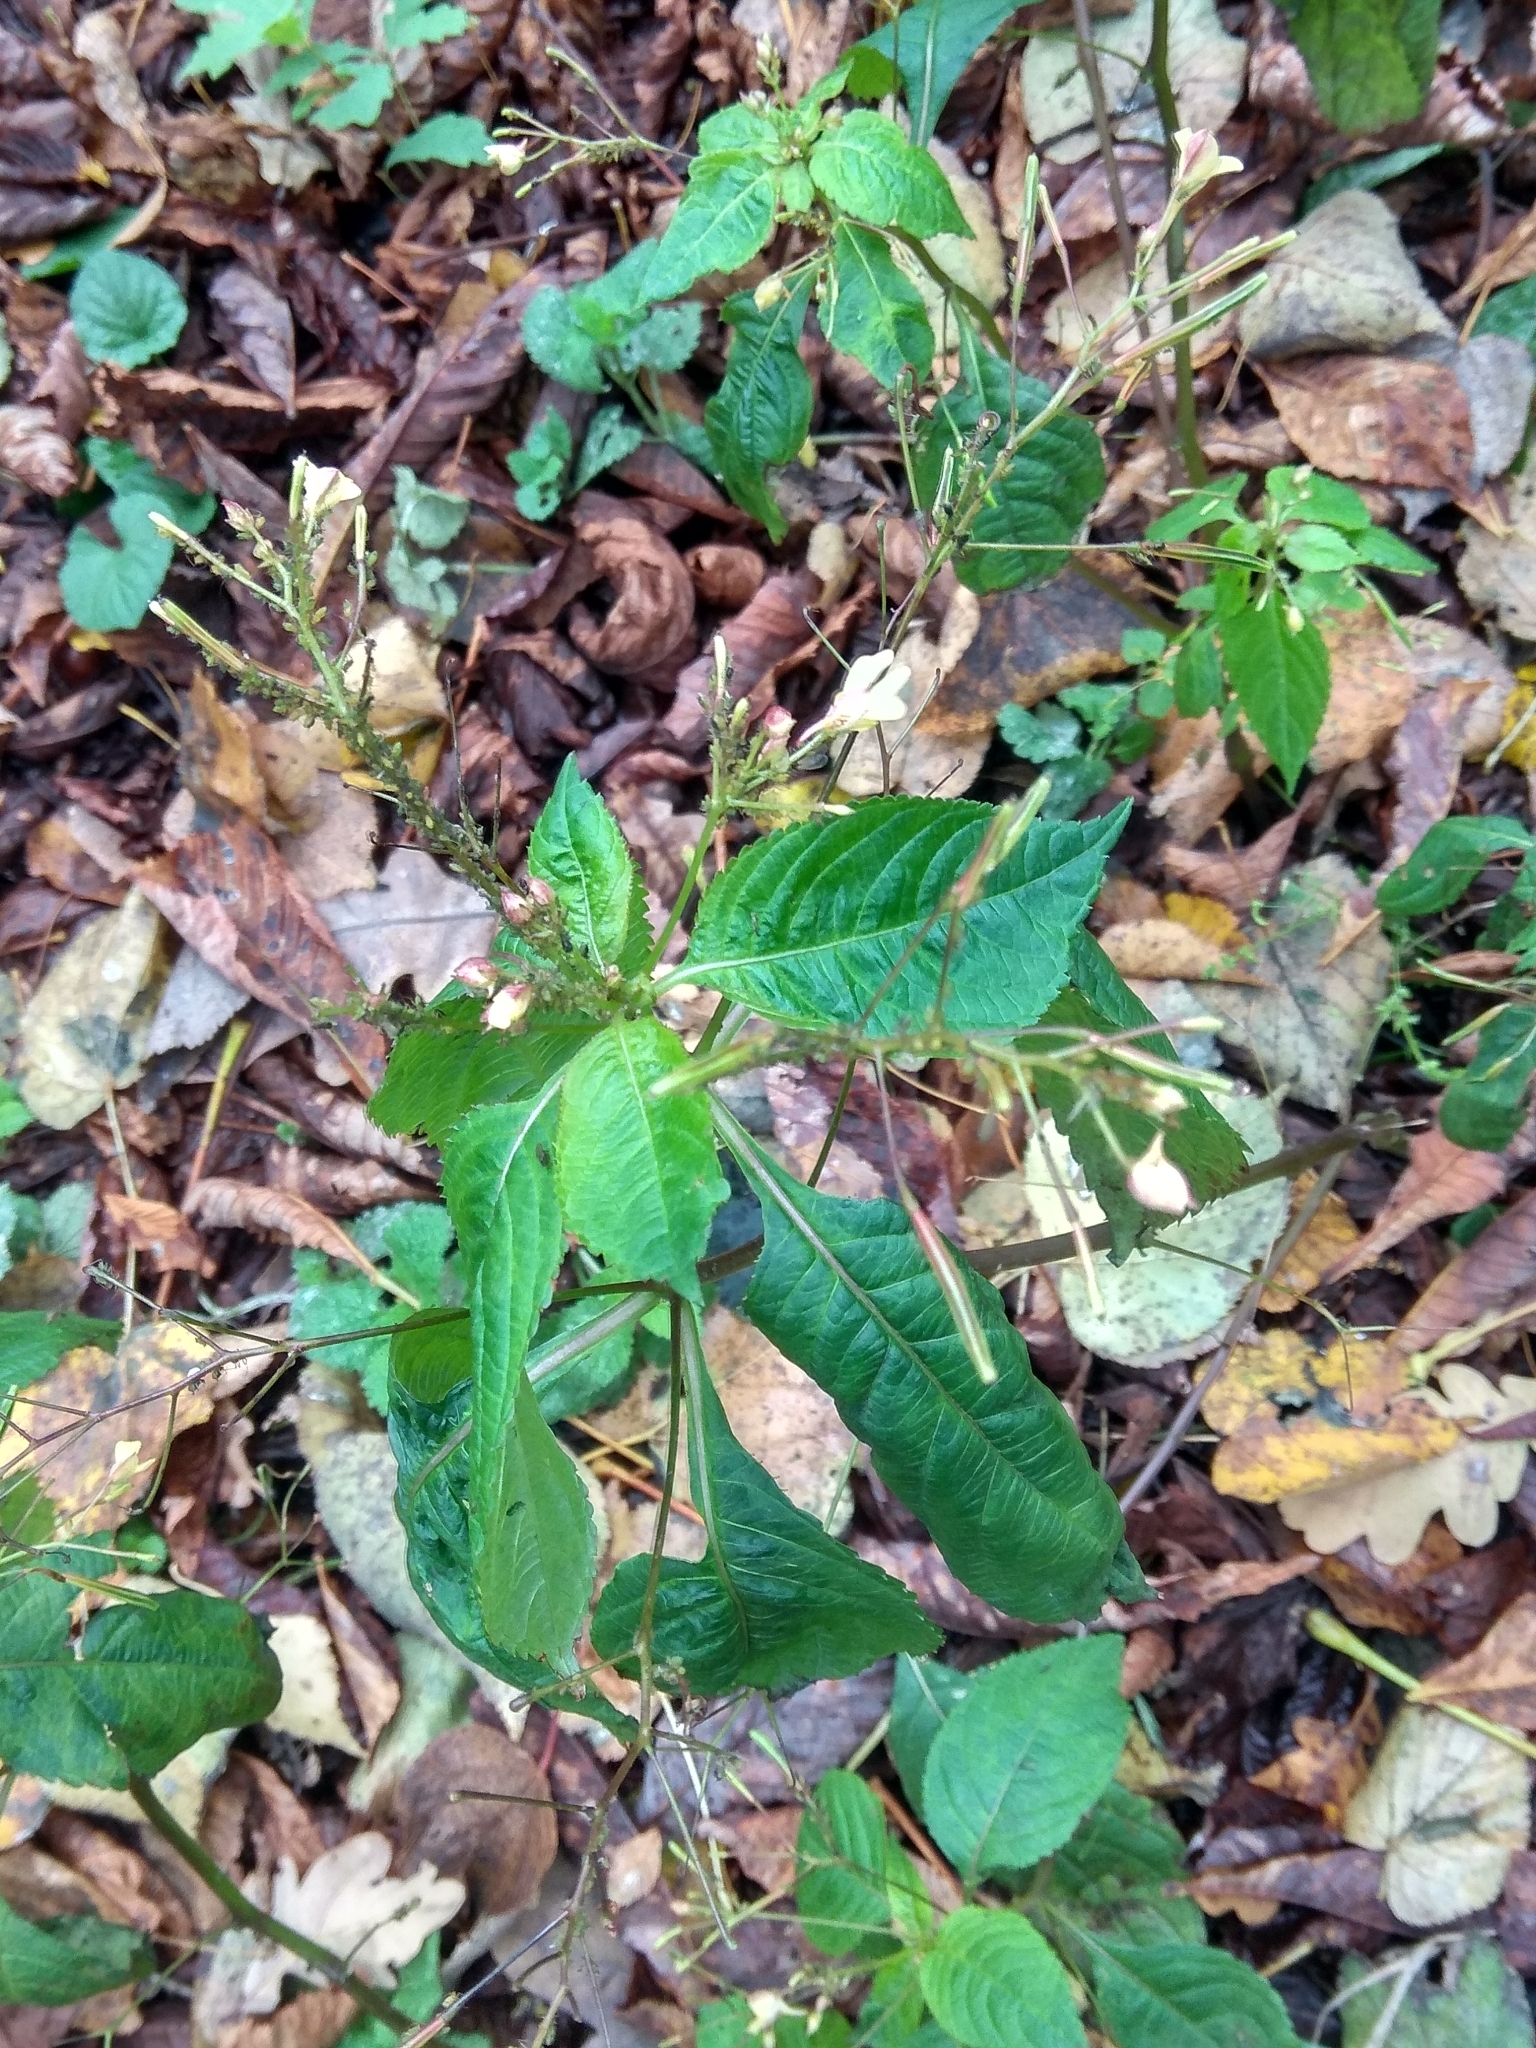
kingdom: Plantae
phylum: Tracheophyta
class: Magnoliopsida
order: Ericales
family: Balsaminaceae
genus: Impatiens
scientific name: Impatiens parviflora
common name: Small balsam
